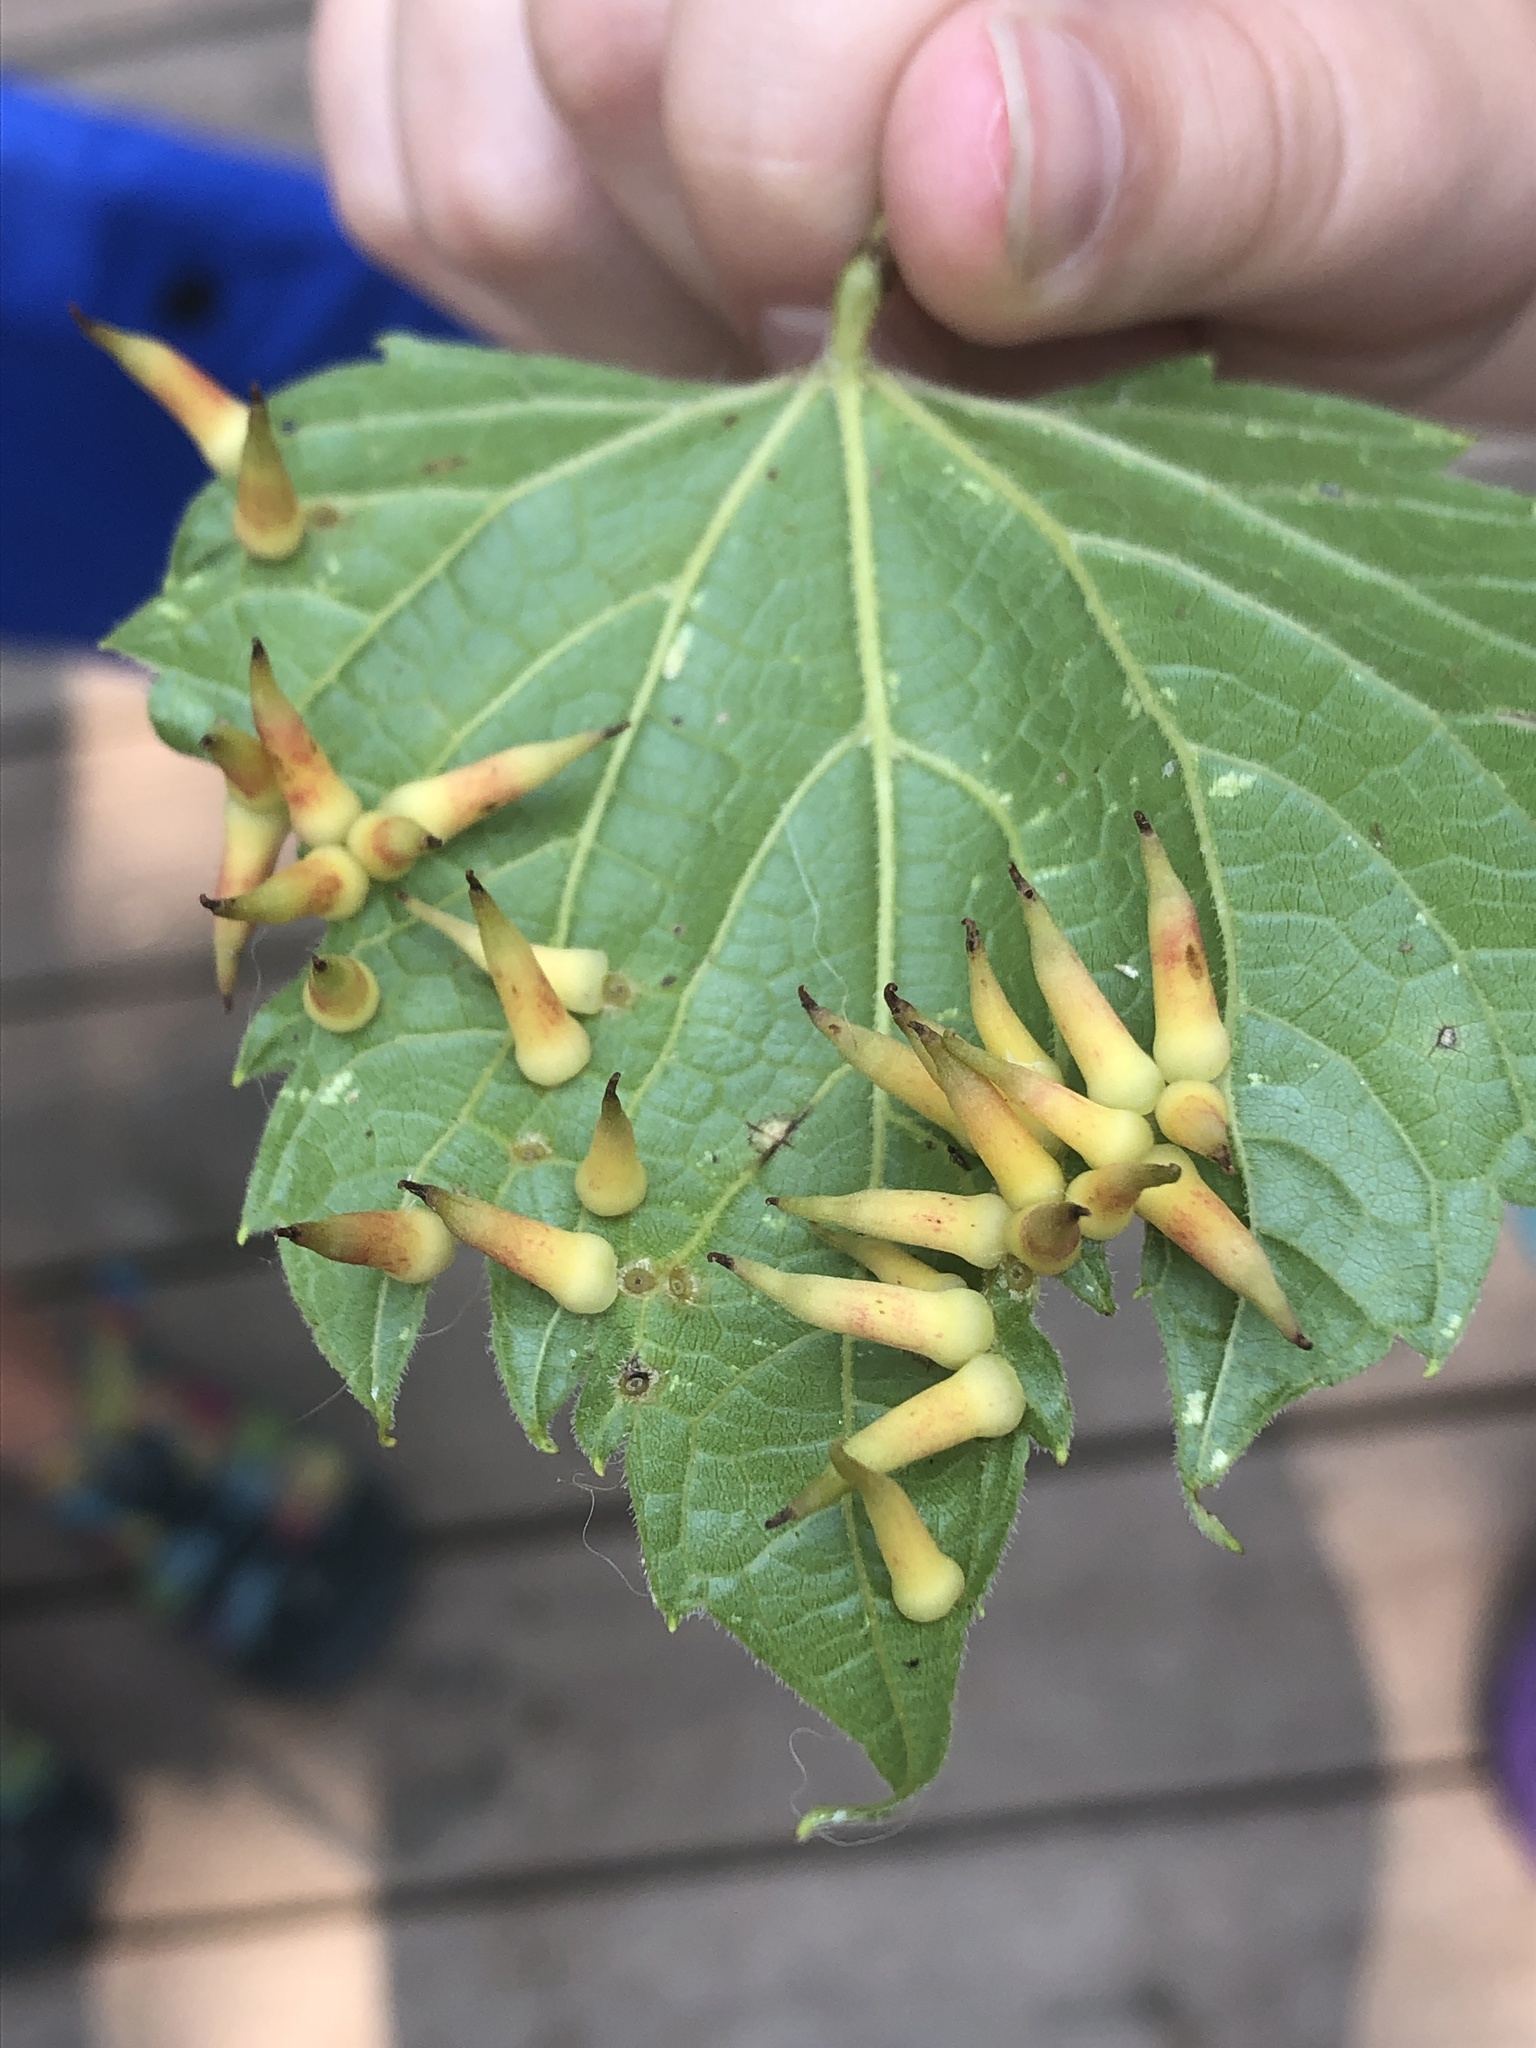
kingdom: Animalia
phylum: Arthropoda
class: Insecta
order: Diptera
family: Cecidomyiidae
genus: Ampelomyia
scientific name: Ampelomyia viticola
